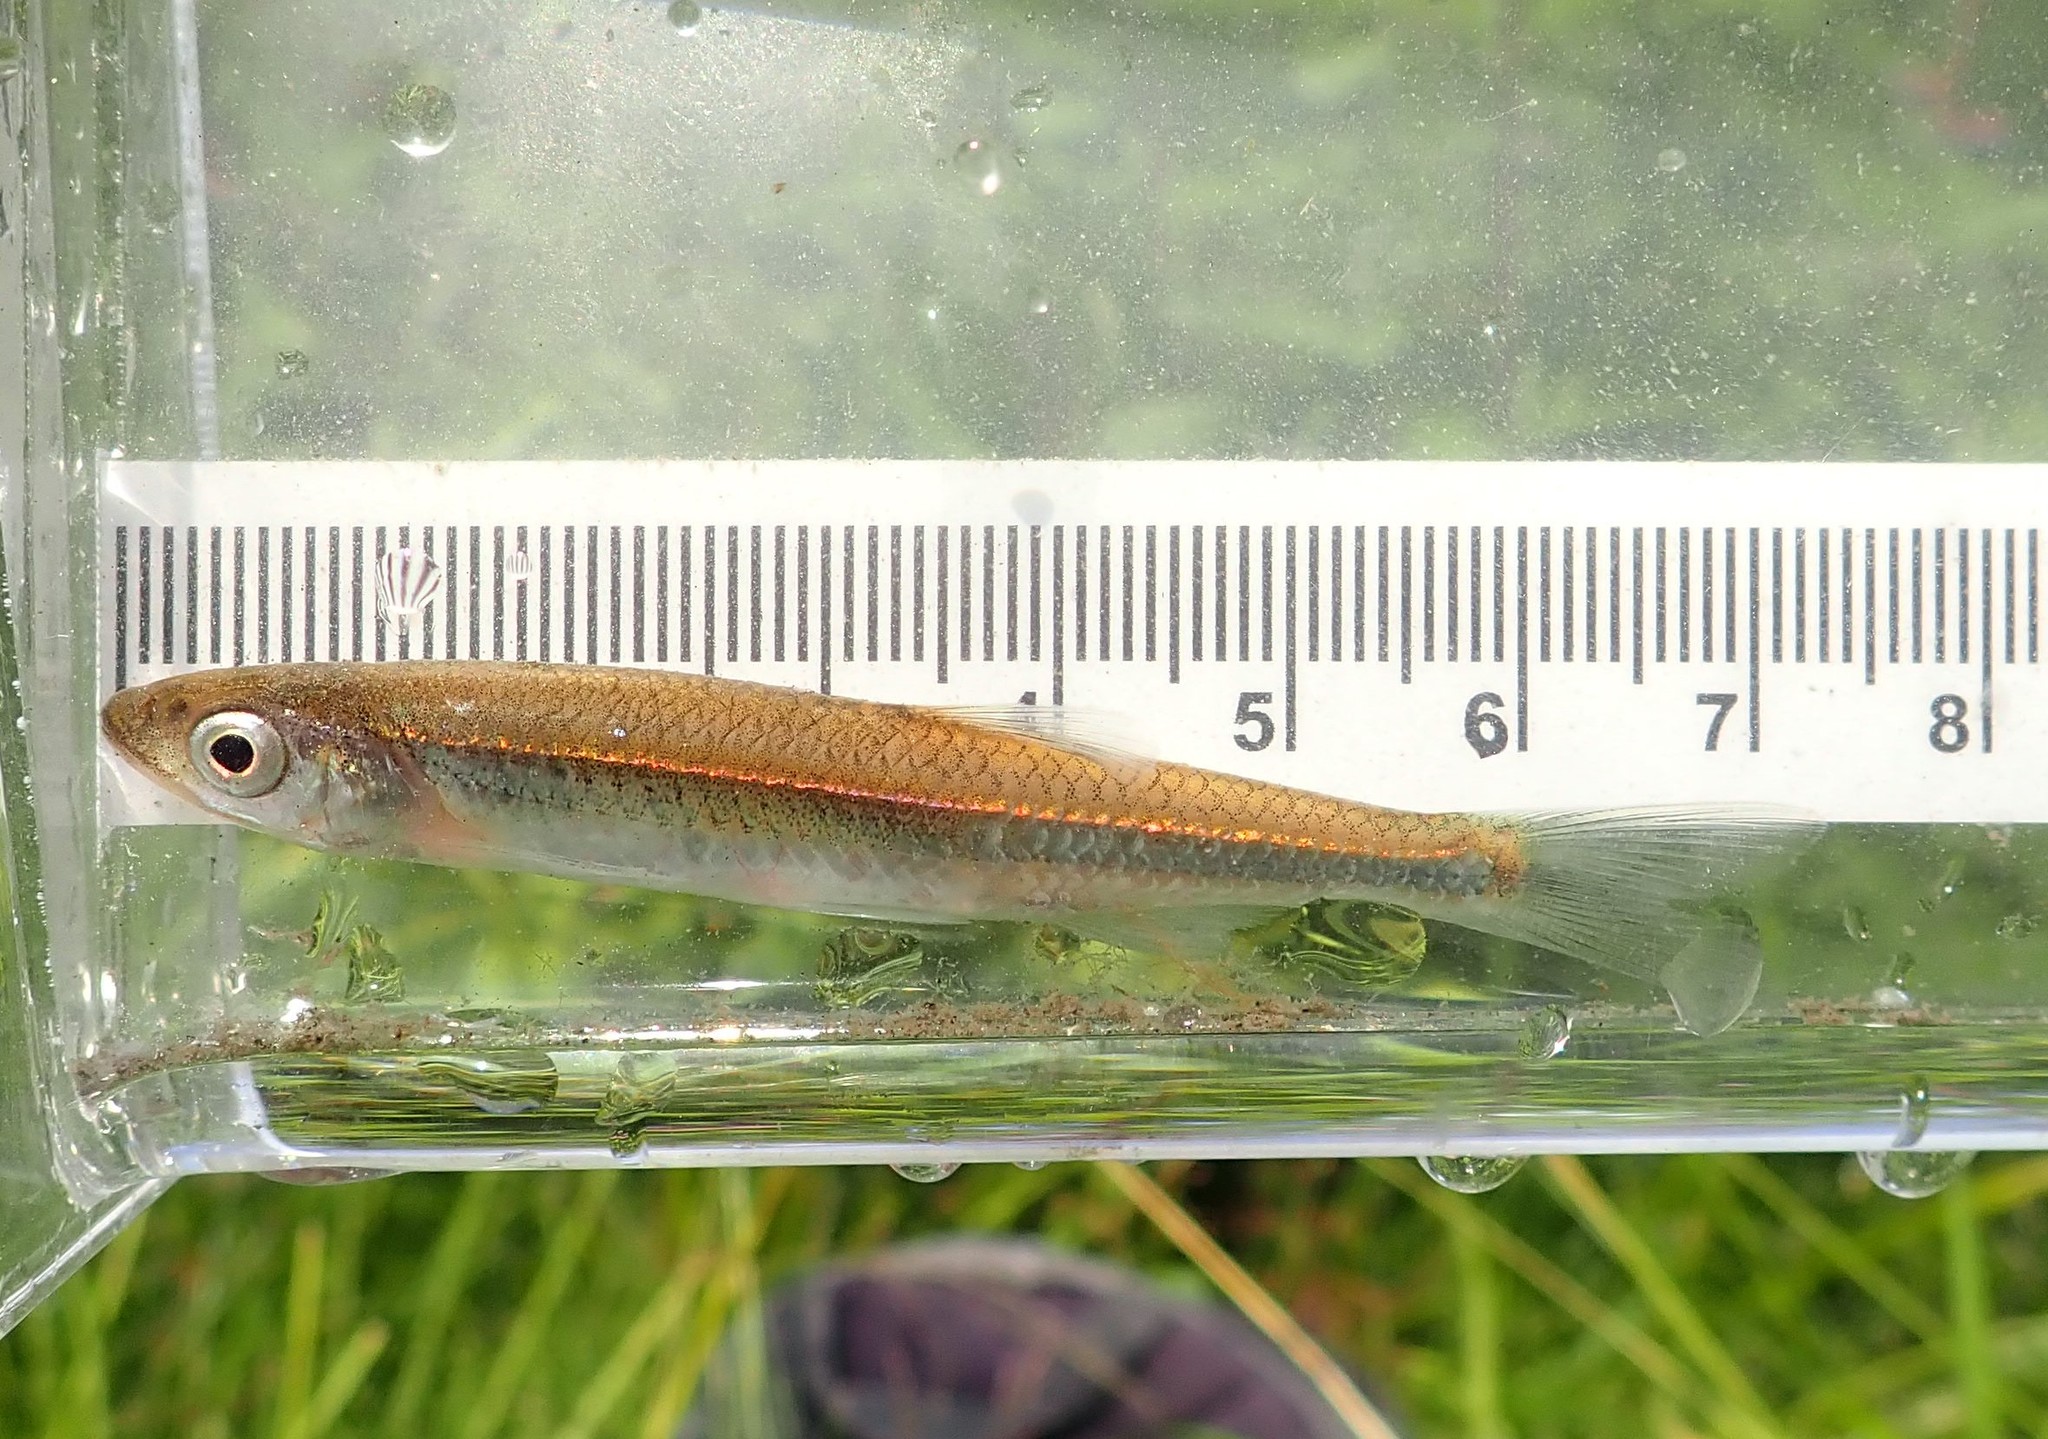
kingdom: Animalia
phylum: Chordata
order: Cypriniformes
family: Cyprinidae
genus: Notropis
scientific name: Notropis rubellus
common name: Rosyface shiner
